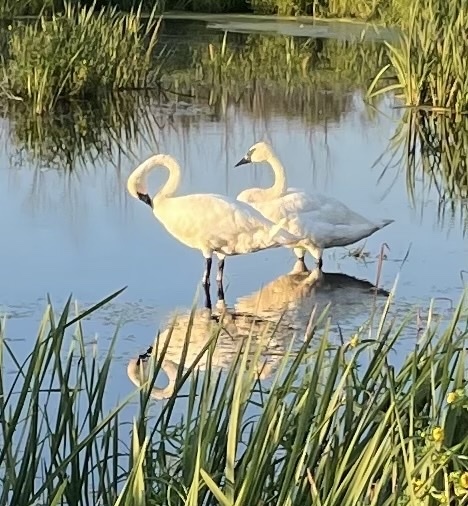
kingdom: Animalia
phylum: Chordata
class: Aves
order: Anseriformes
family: Anatidae
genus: Cygnus
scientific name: Cygnus buccinator
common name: Trumpeter swan
